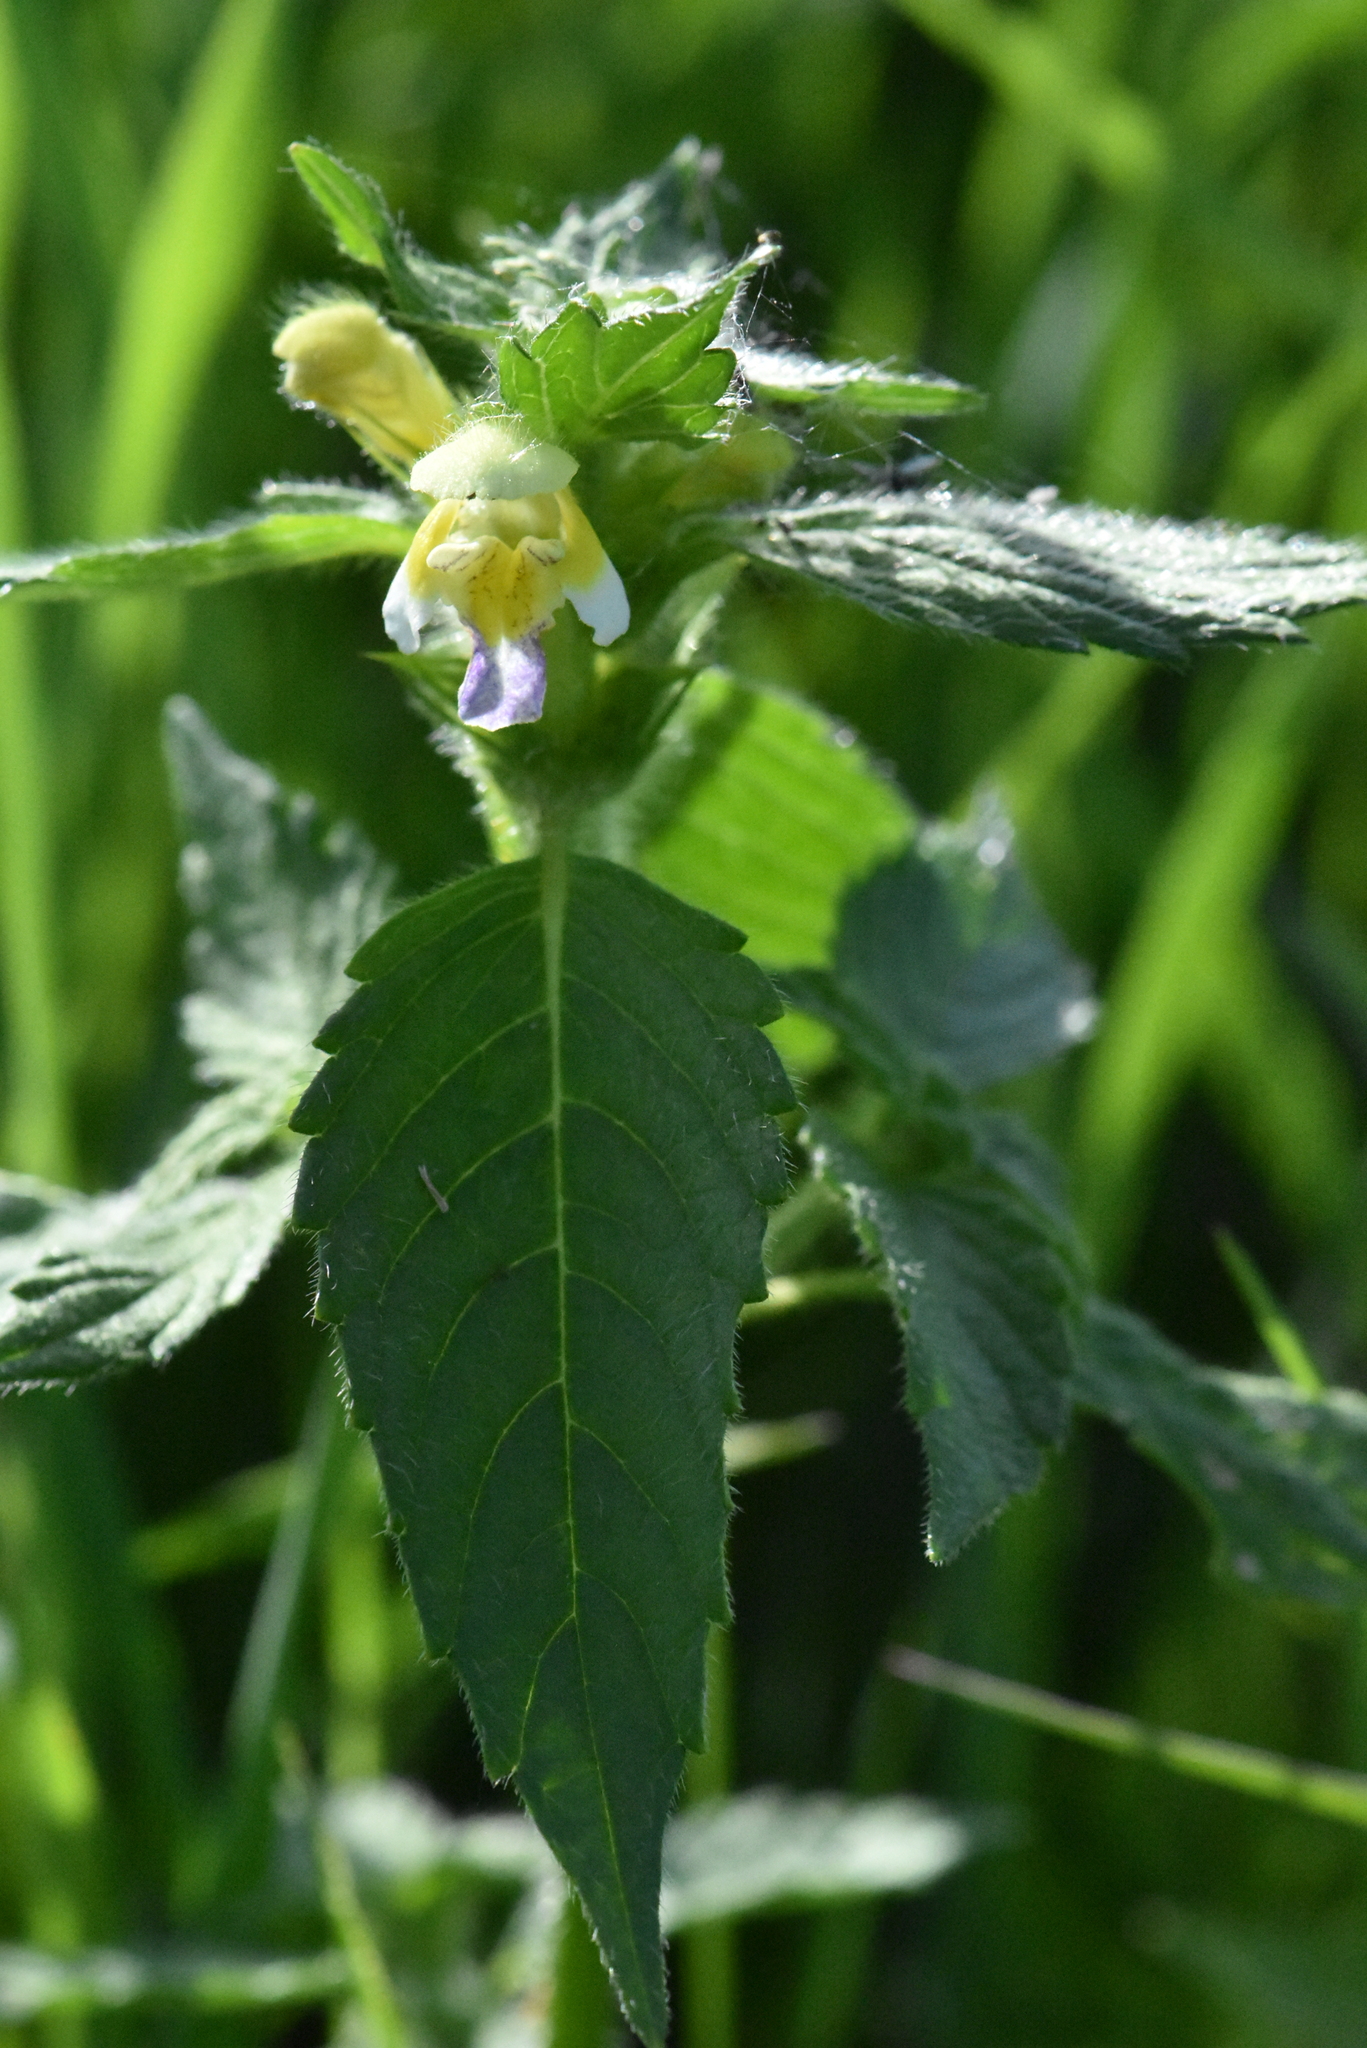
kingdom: Plantae
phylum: Tracheophyta
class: Magnoliopsida
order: Lamiales
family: Lamiaceae
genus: Galeopsis
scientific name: Galeopsis speciosa
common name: Large-flowered hemp-nettle
